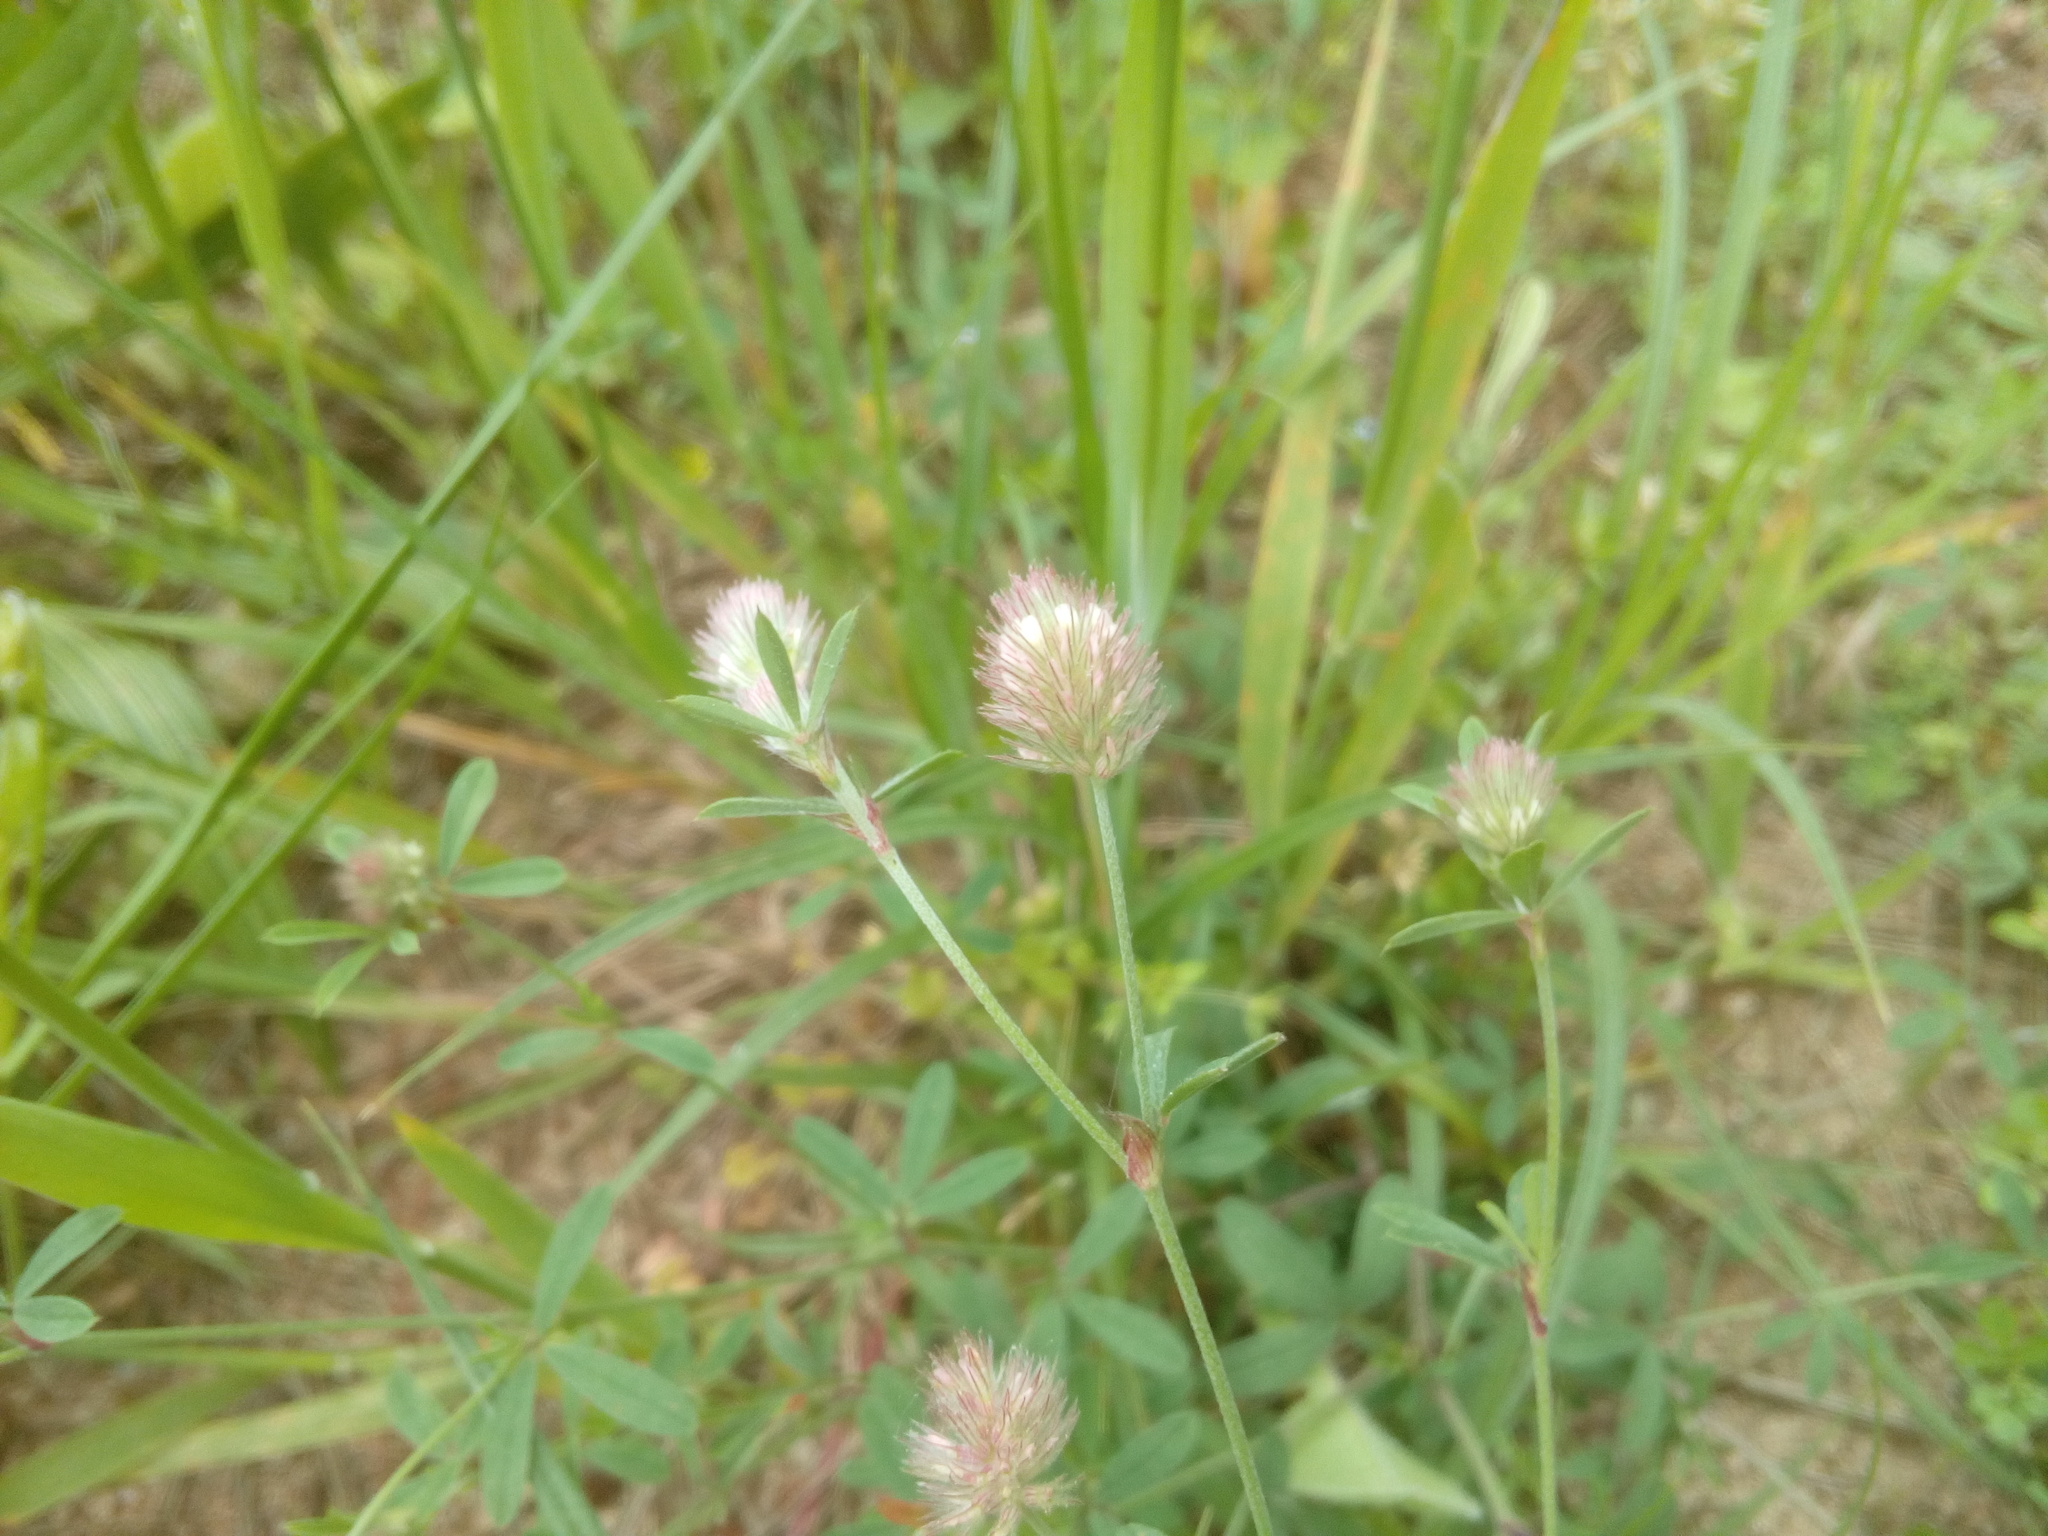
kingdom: Plantae
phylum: Tracheophyta
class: Magnoliopsida
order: Fabales
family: Fabaceae
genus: Trifolium
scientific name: Trifolium arvense
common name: Hare's-foot clover
